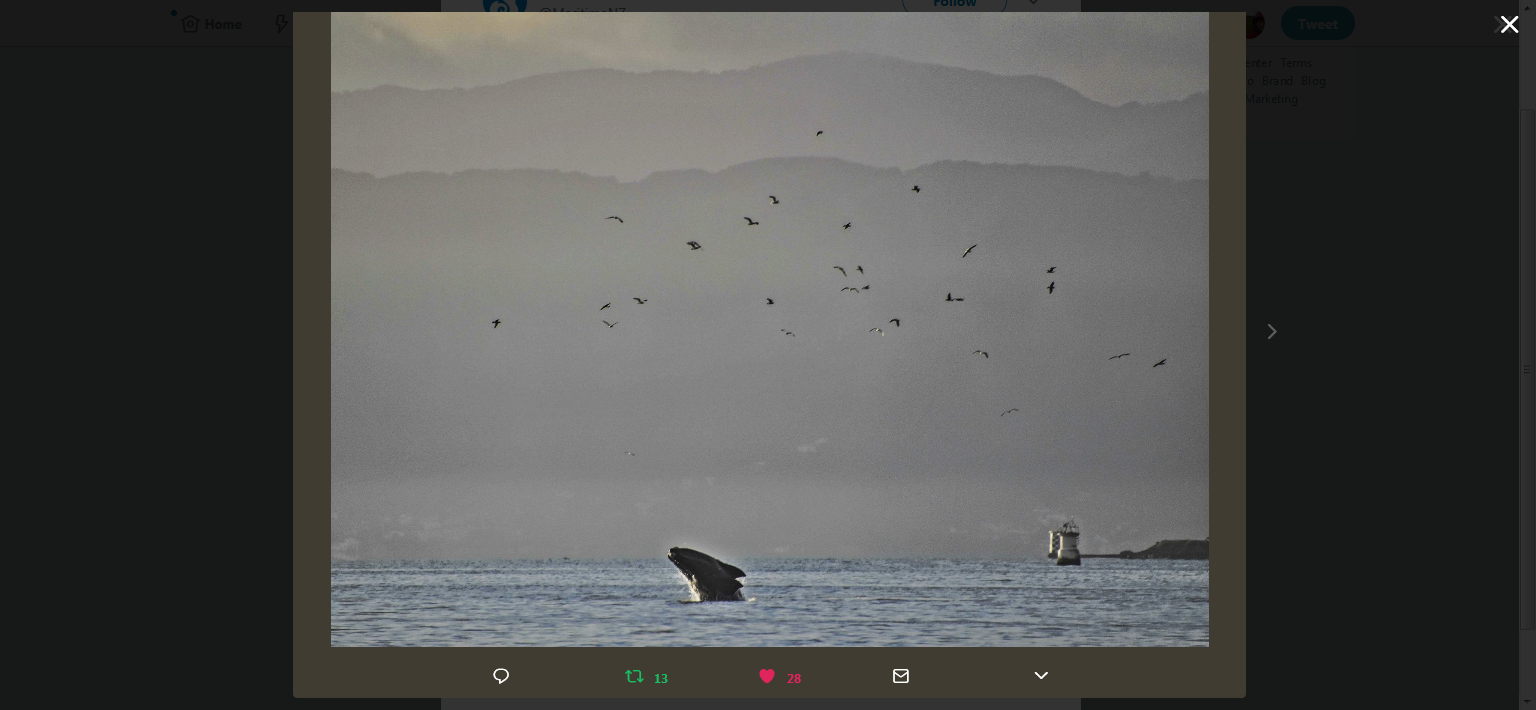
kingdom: Animalia
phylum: Chordata
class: Mammalia
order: Cetacea
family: Balaenidae
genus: Eubalaena
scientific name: Eubalaena australis
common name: Southern right whale
